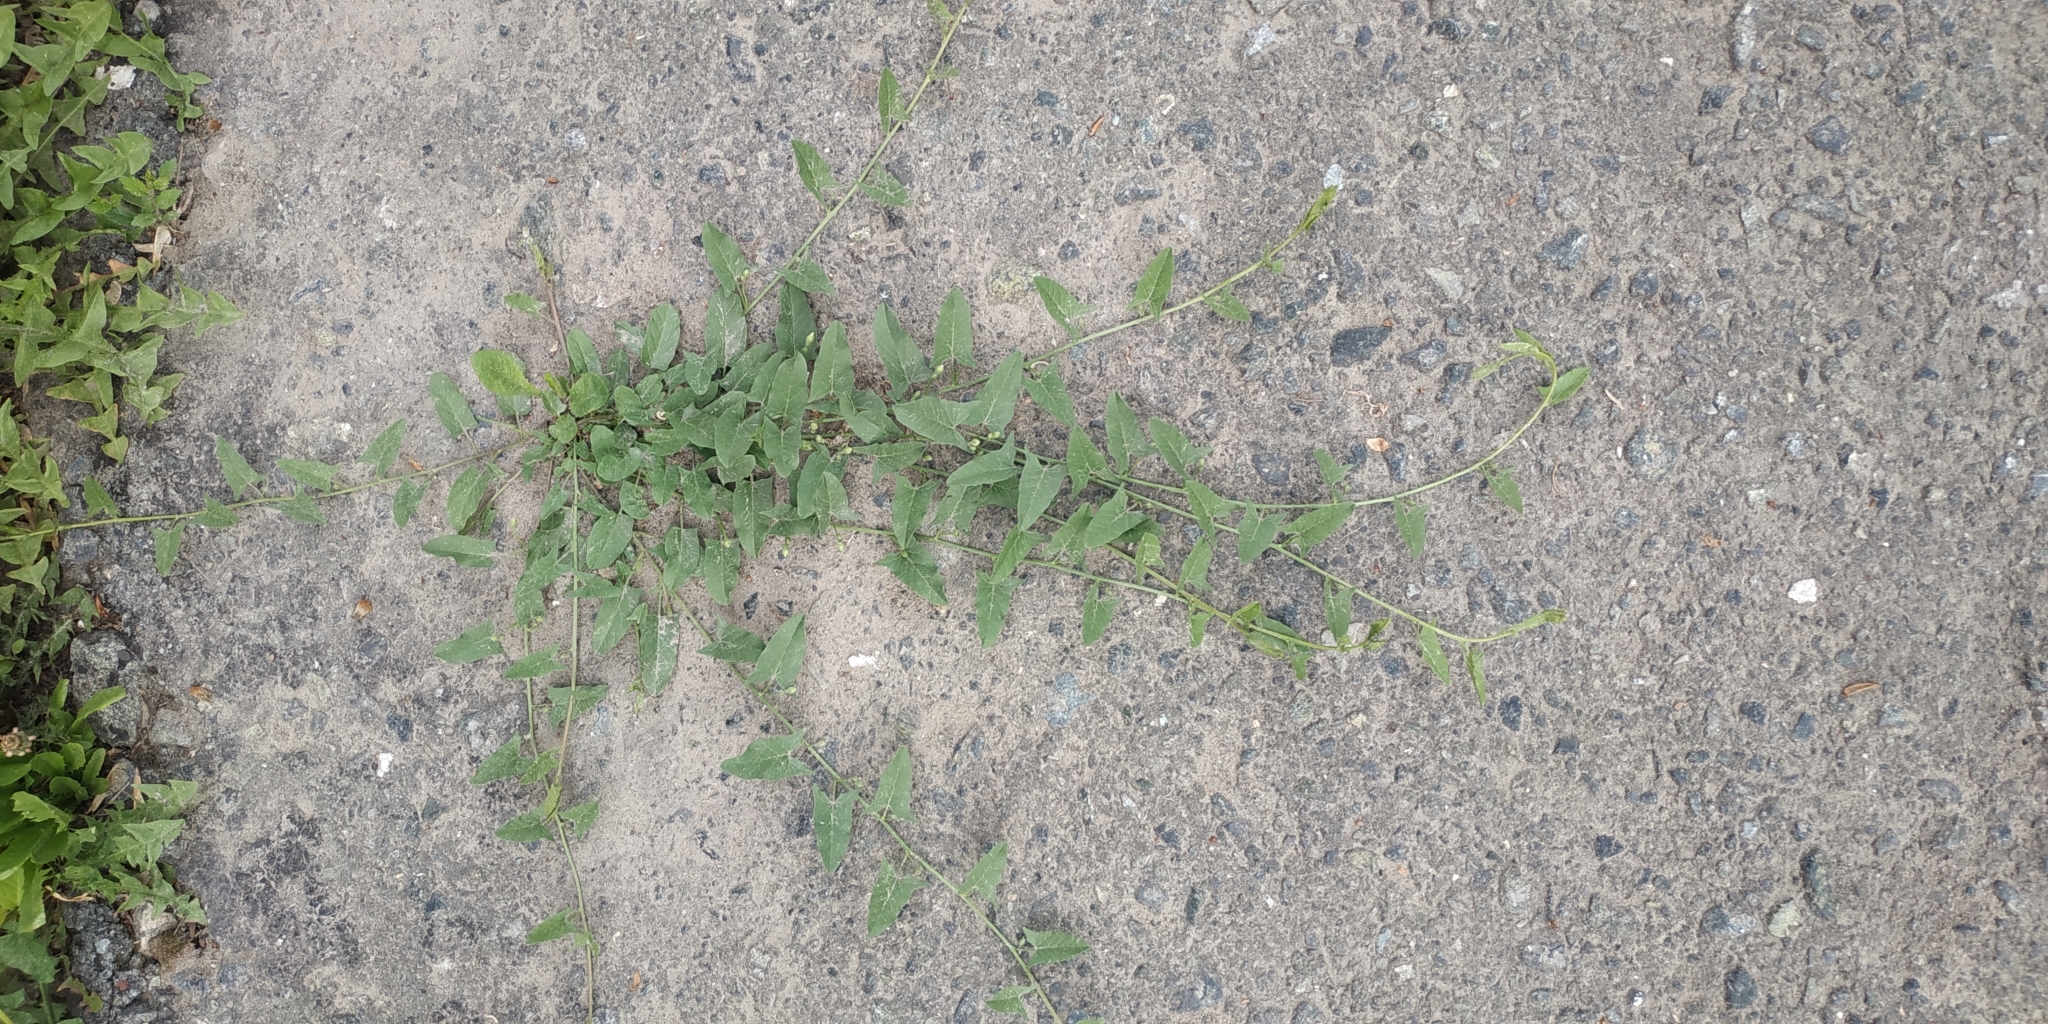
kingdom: Plantae
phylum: Tracheophyta
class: Magnoliopsida
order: Solanales
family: Convolvulaceae
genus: Convolvulus
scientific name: Convolvulus arvensis
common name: Field bindweed
